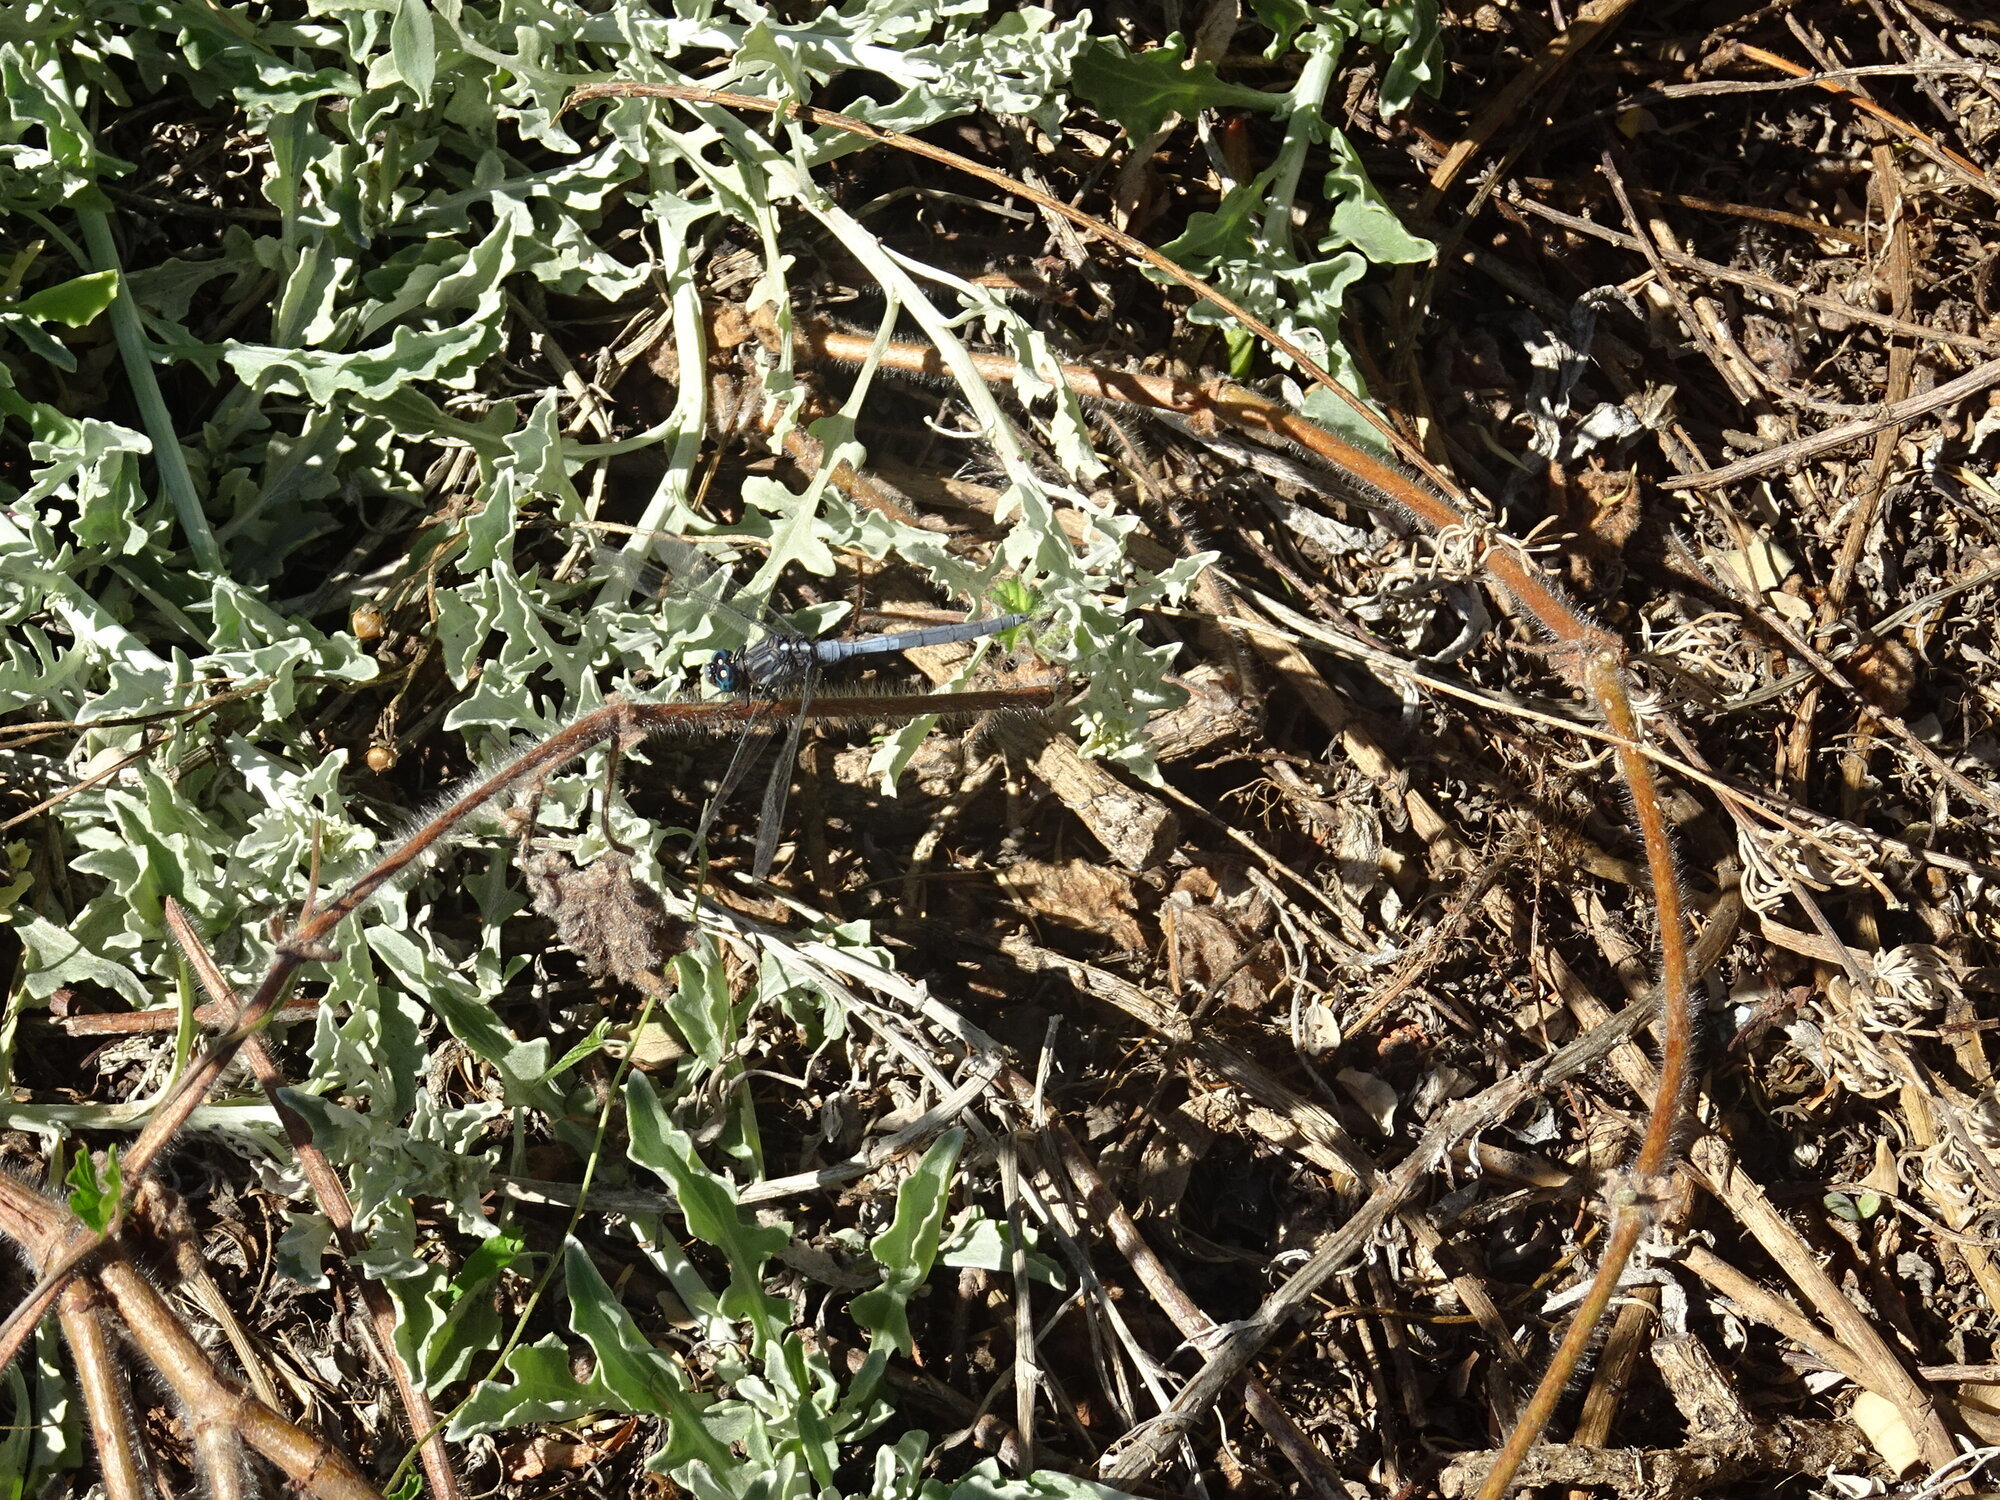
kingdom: Animalia
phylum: Arthropoda
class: Insecta
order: Odonata
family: Libellulidae
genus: Orthetrum
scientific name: Orthetrum julia
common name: Julia skimmer
